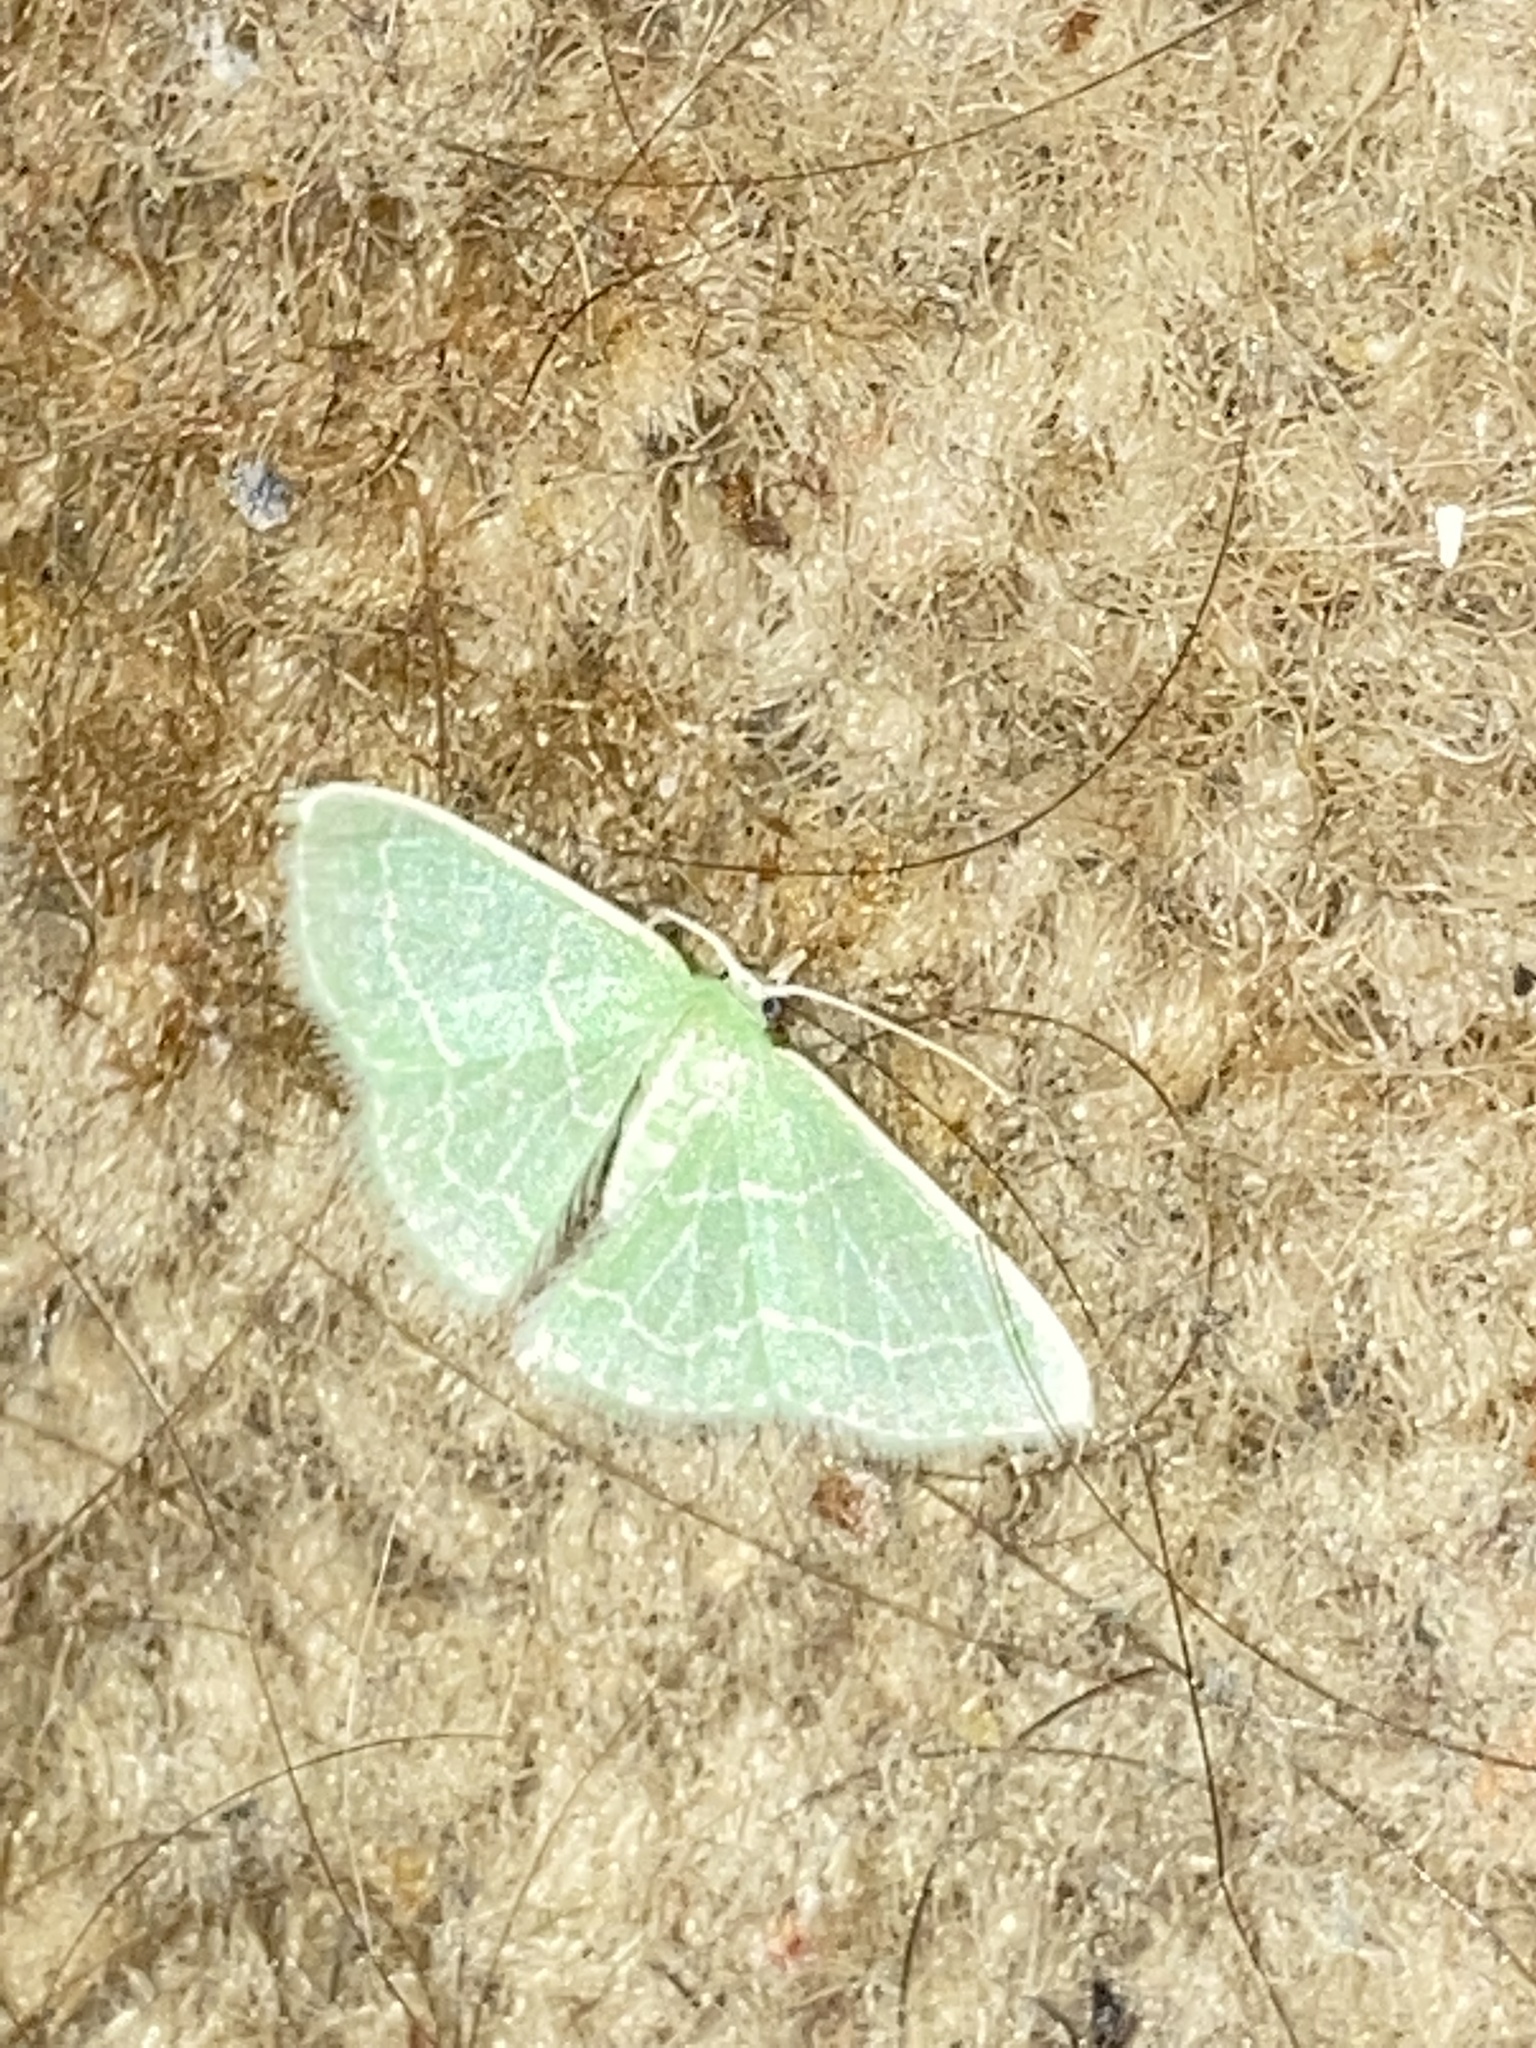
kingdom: Animalia
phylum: Arthropoda
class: Insecta
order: Lepidoptera
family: Geometridae
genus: Synchlora
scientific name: Synchlora aerata
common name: Wavy-lined emerald
